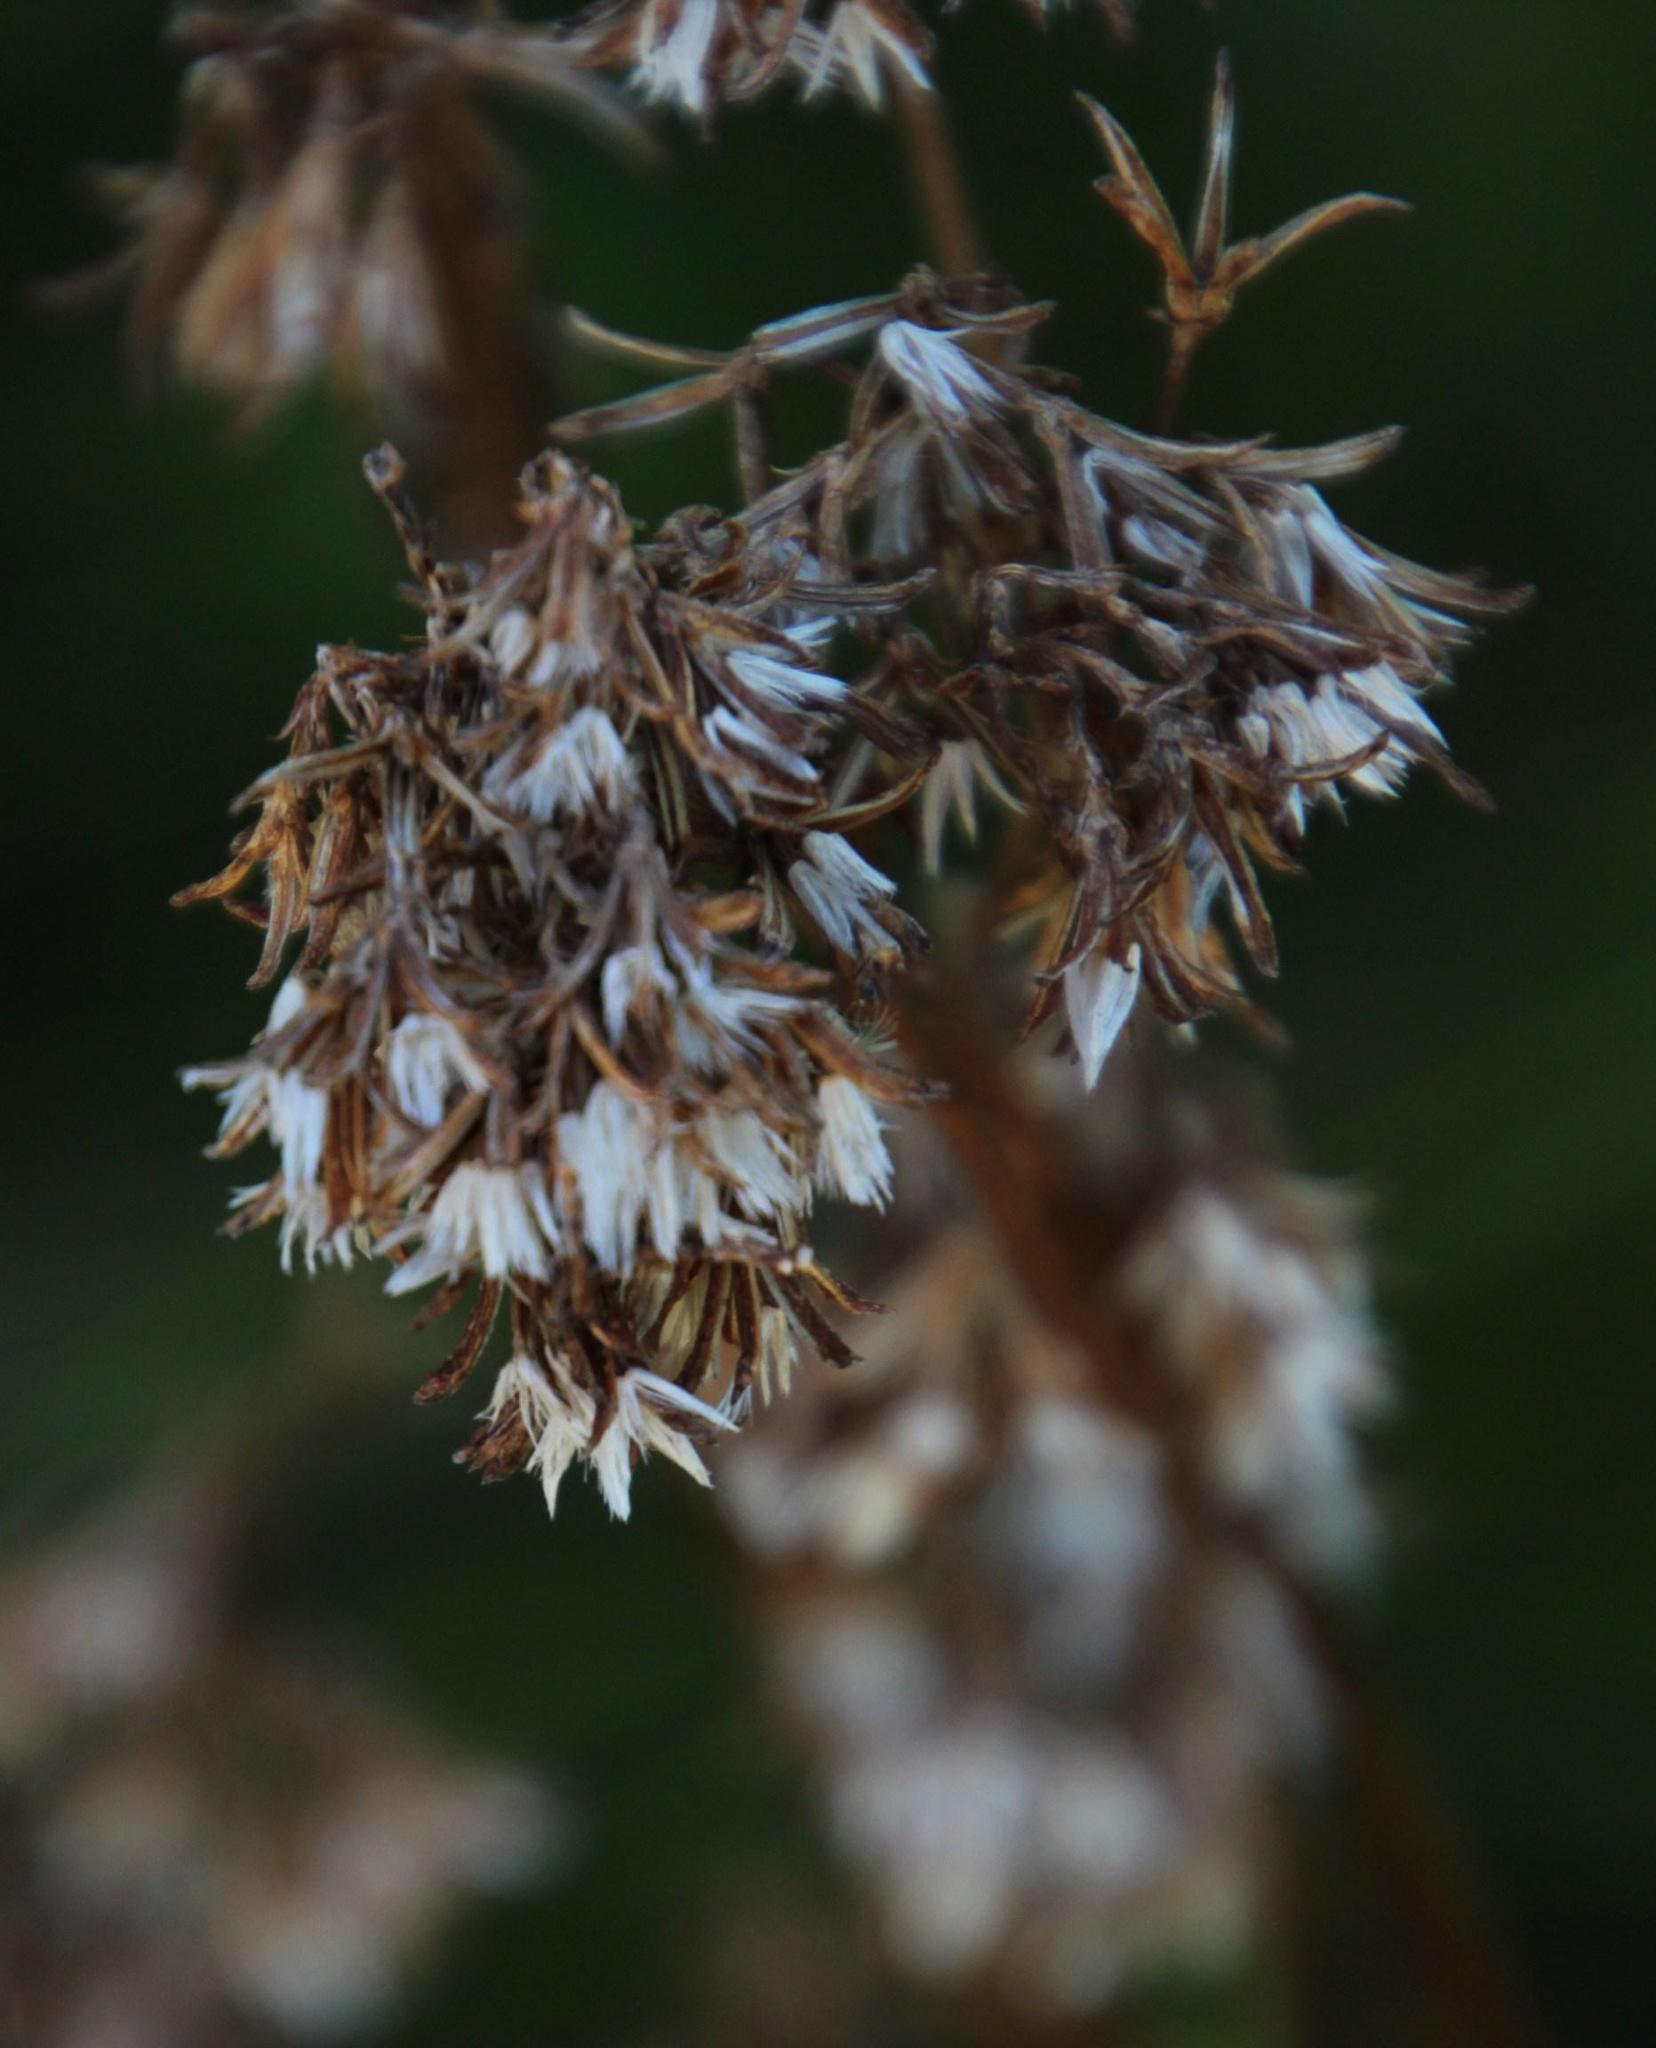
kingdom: Plantae
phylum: Tracheophyta
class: Magnoliopsida
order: Asterales
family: Asteraceae
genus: Senecio
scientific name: Senecio bipinnatus
